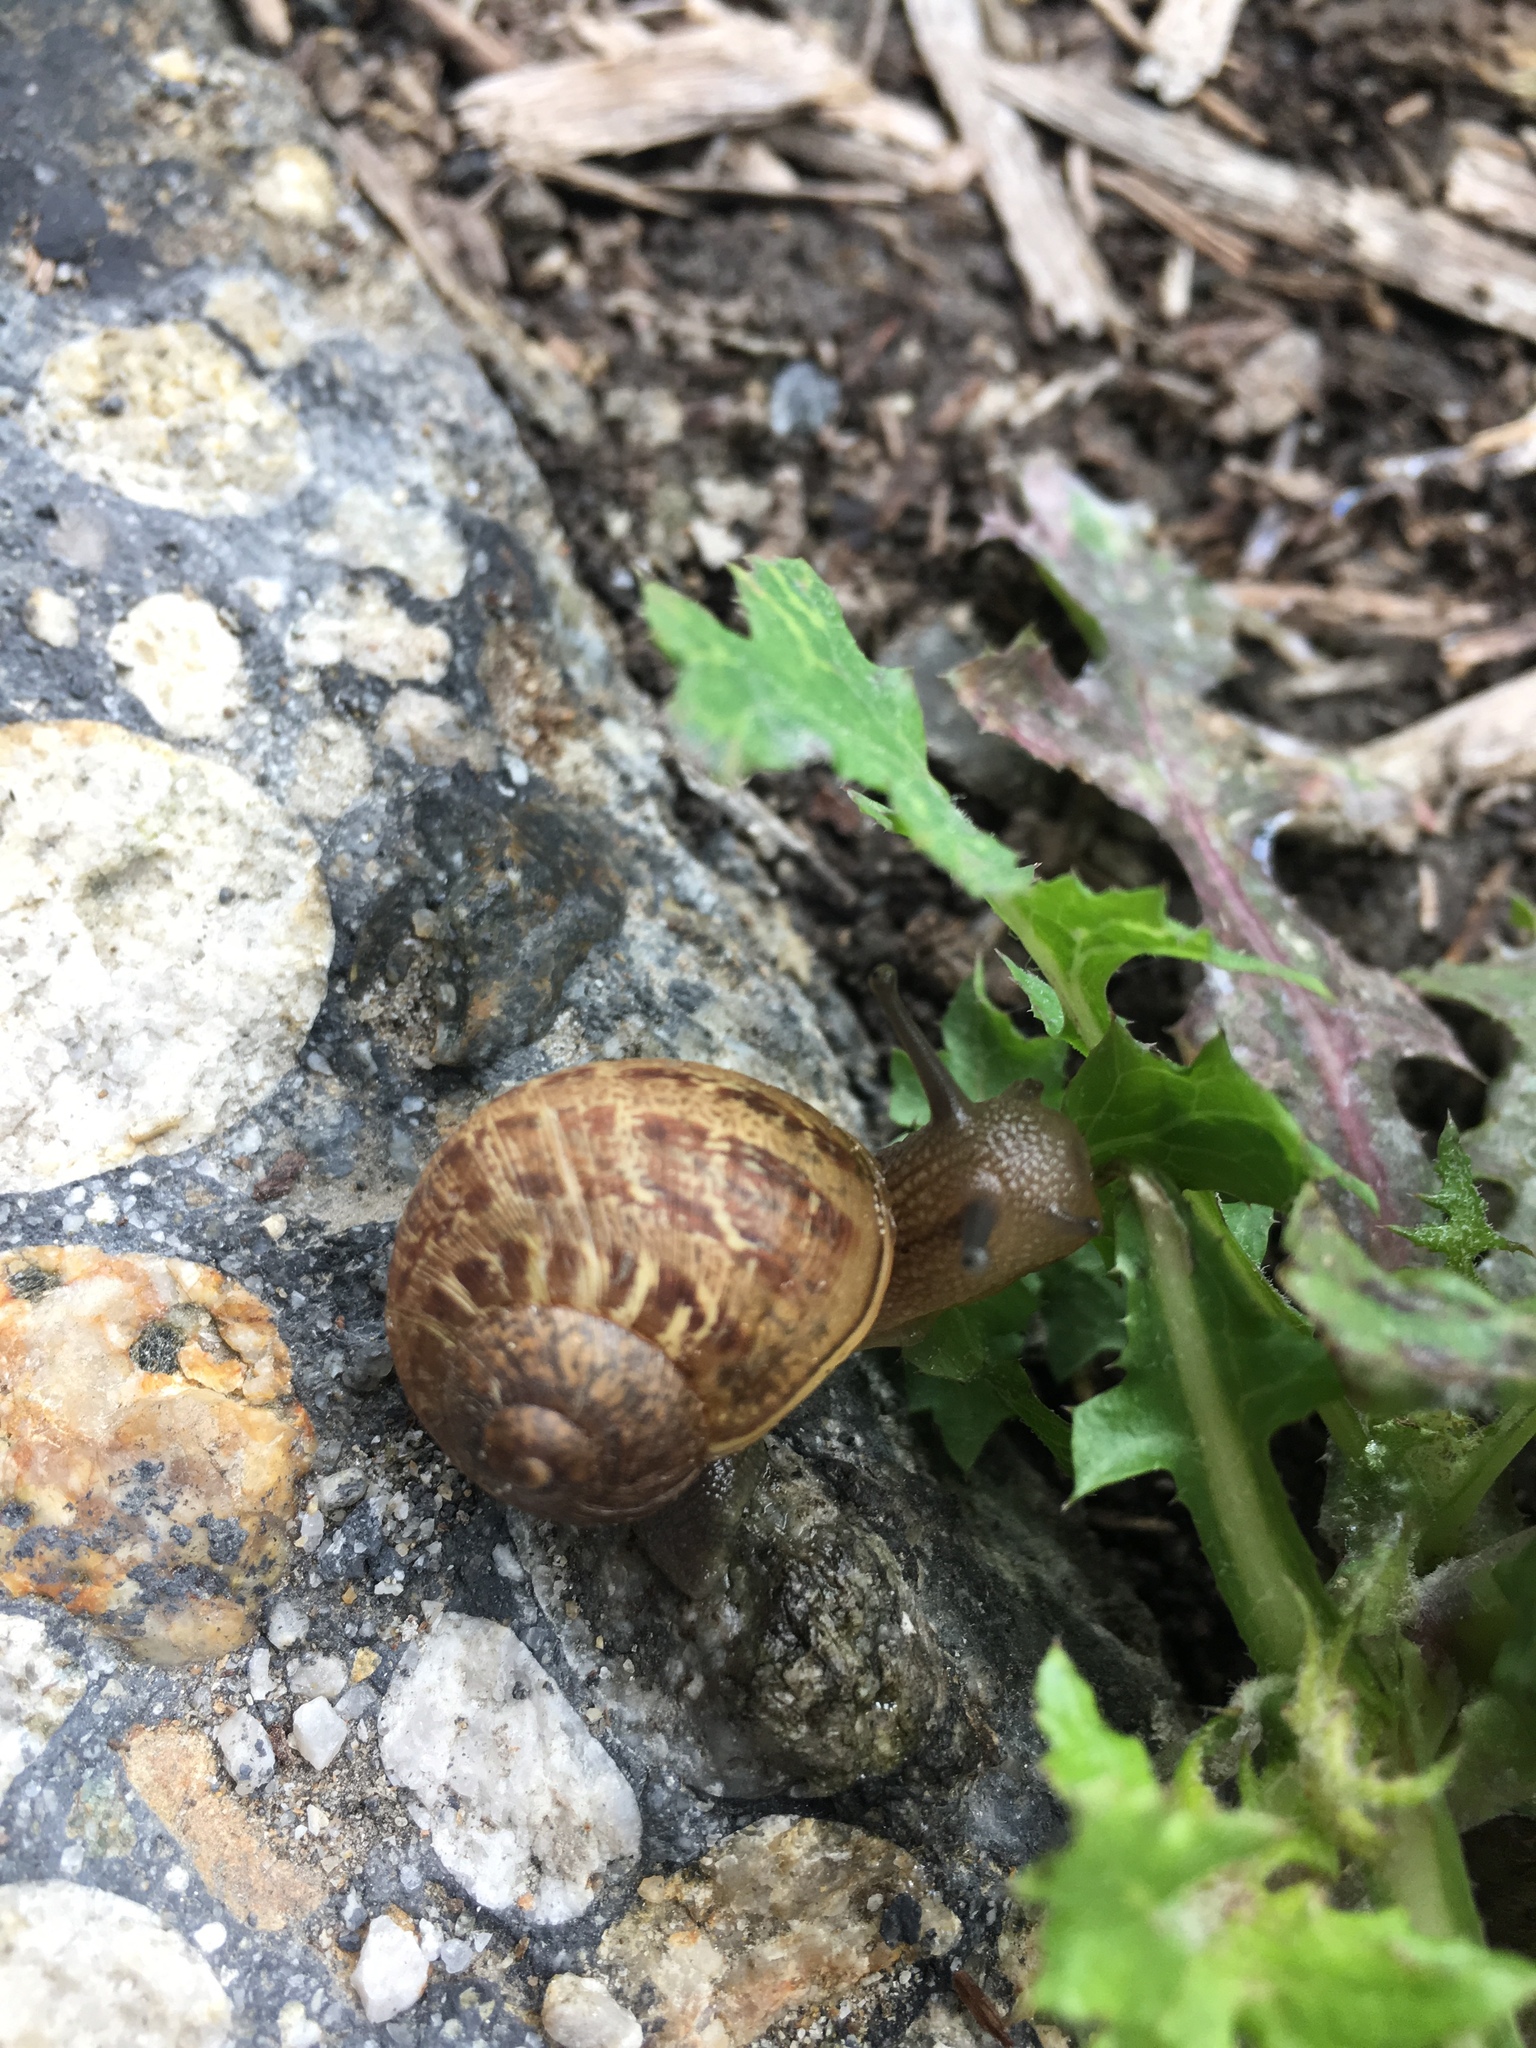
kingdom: Animalia
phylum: Mollusca
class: Gastropoda
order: Stylommatophora
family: Helicidae
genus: Cornu
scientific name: Cornu aspersum
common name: Brown garden snail
